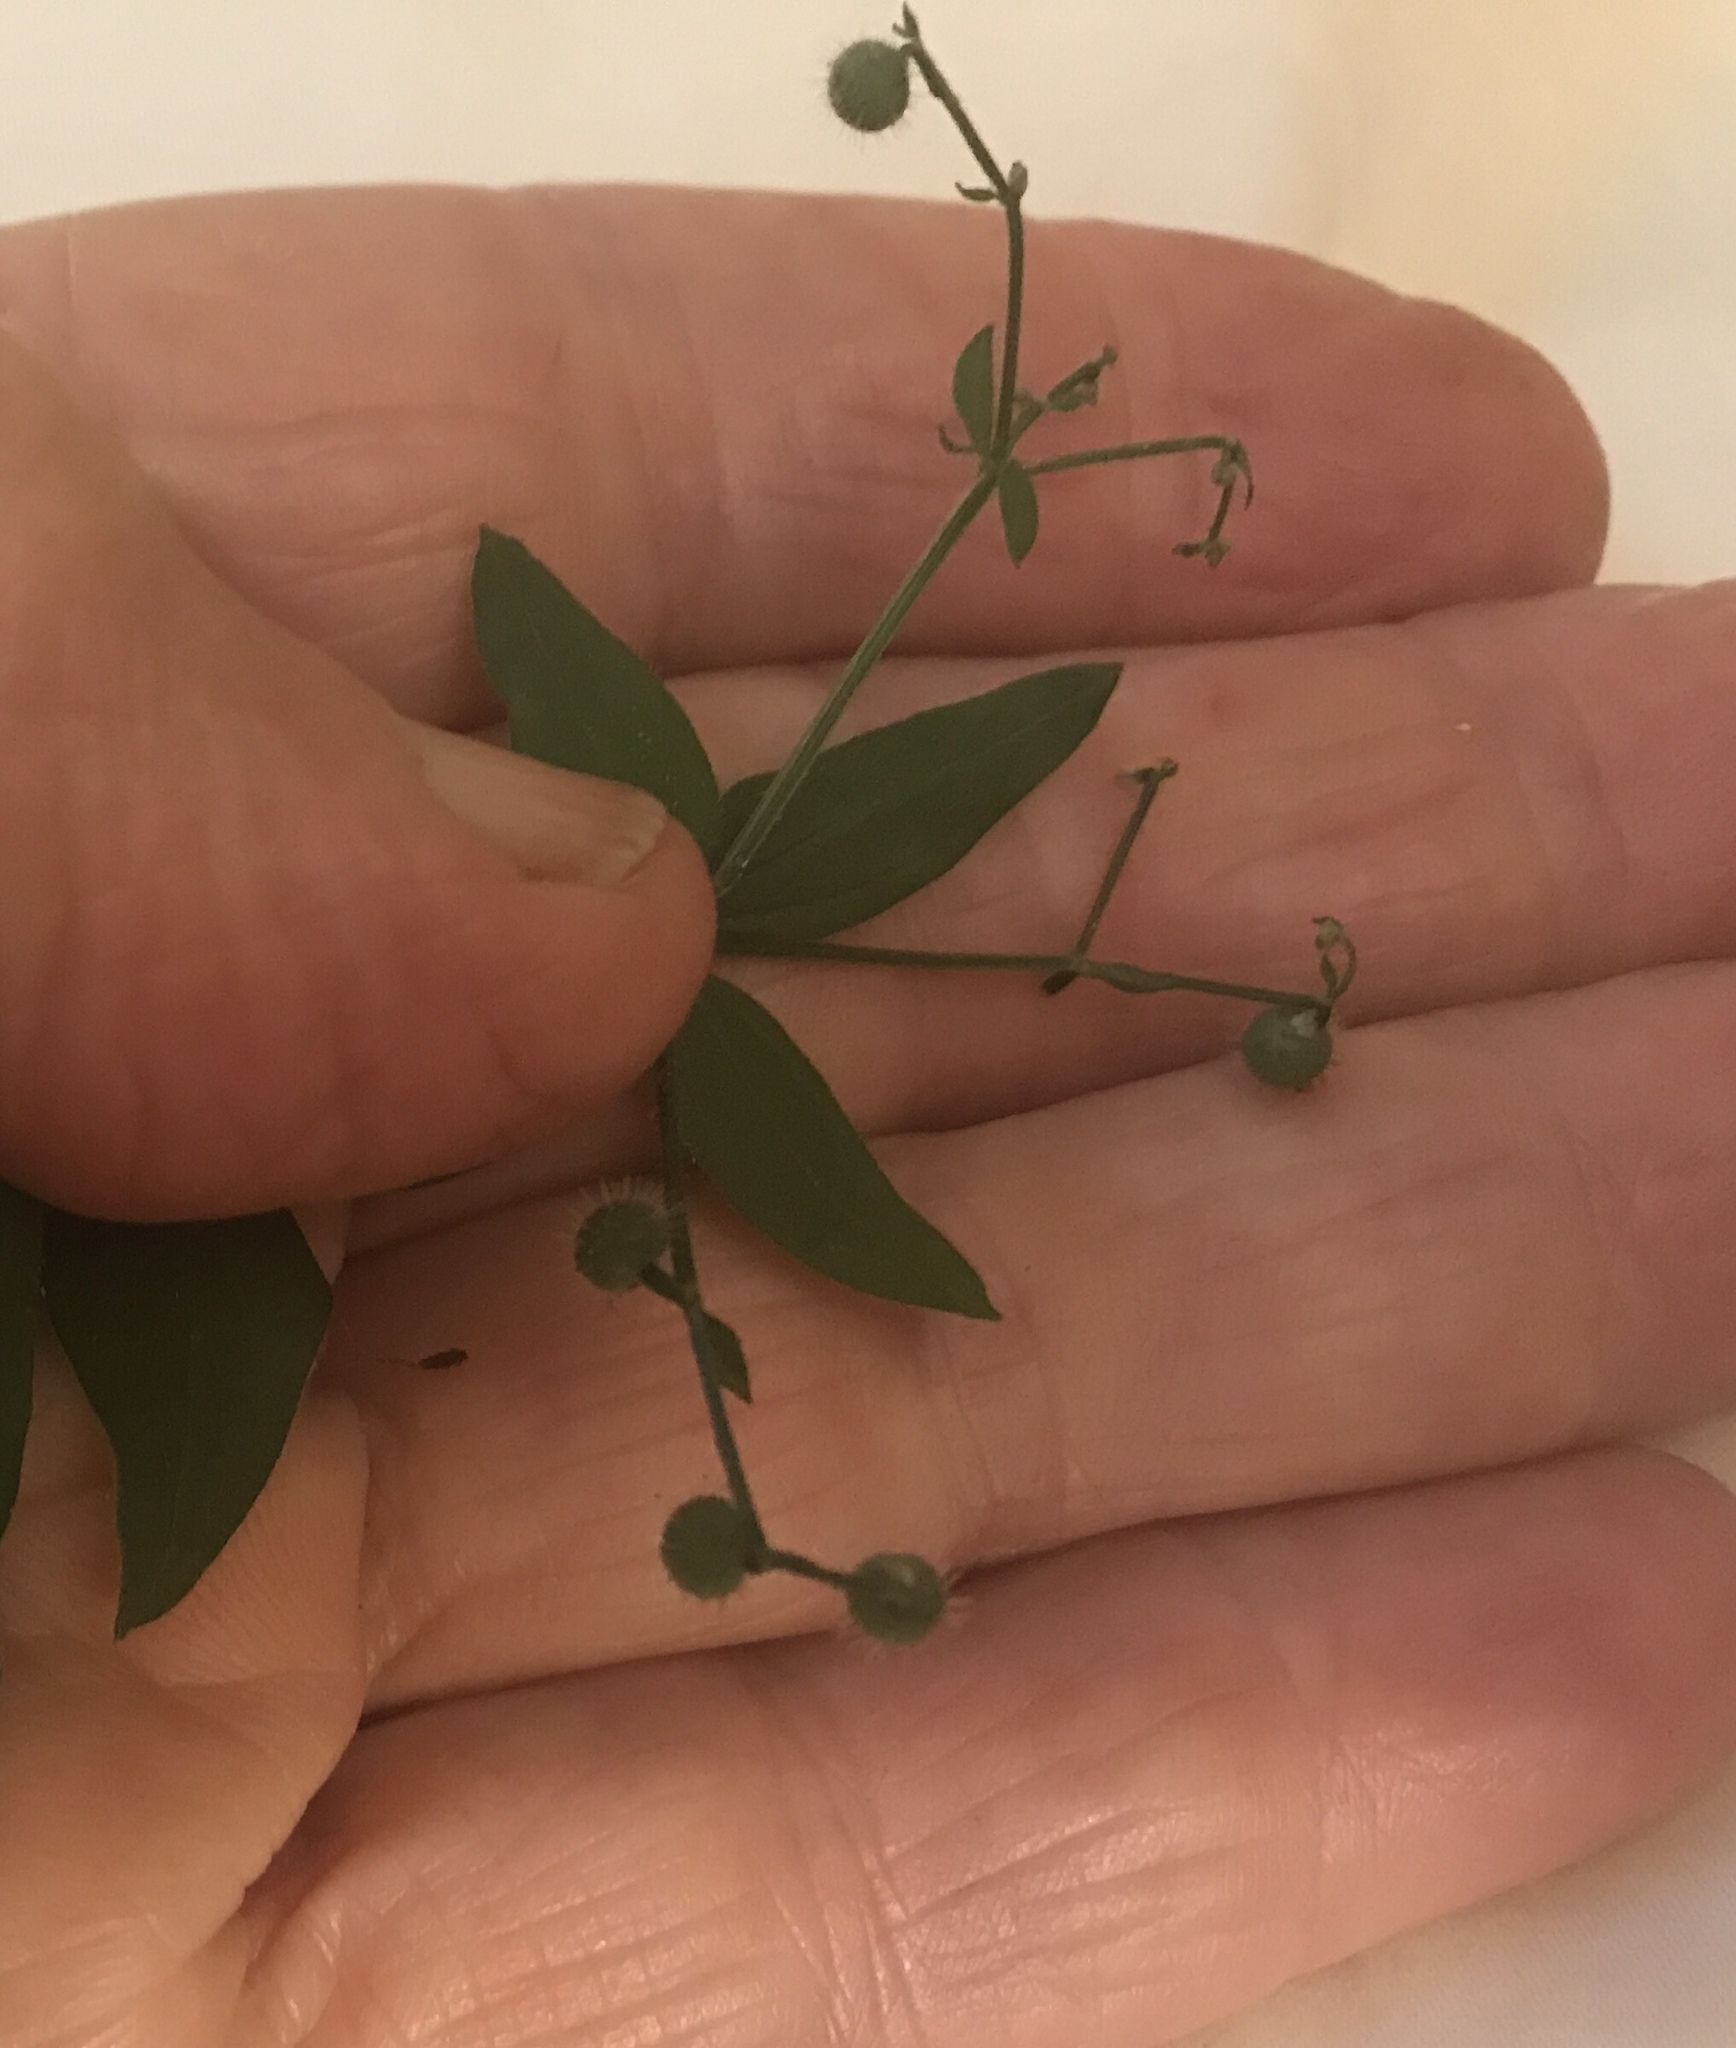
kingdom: Plantae
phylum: Tracheophyta
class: Magnoliopsida
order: Gentianales
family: Rubiaceae
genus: Galium
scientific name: Galium circaezans
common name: Forest bedstraw
